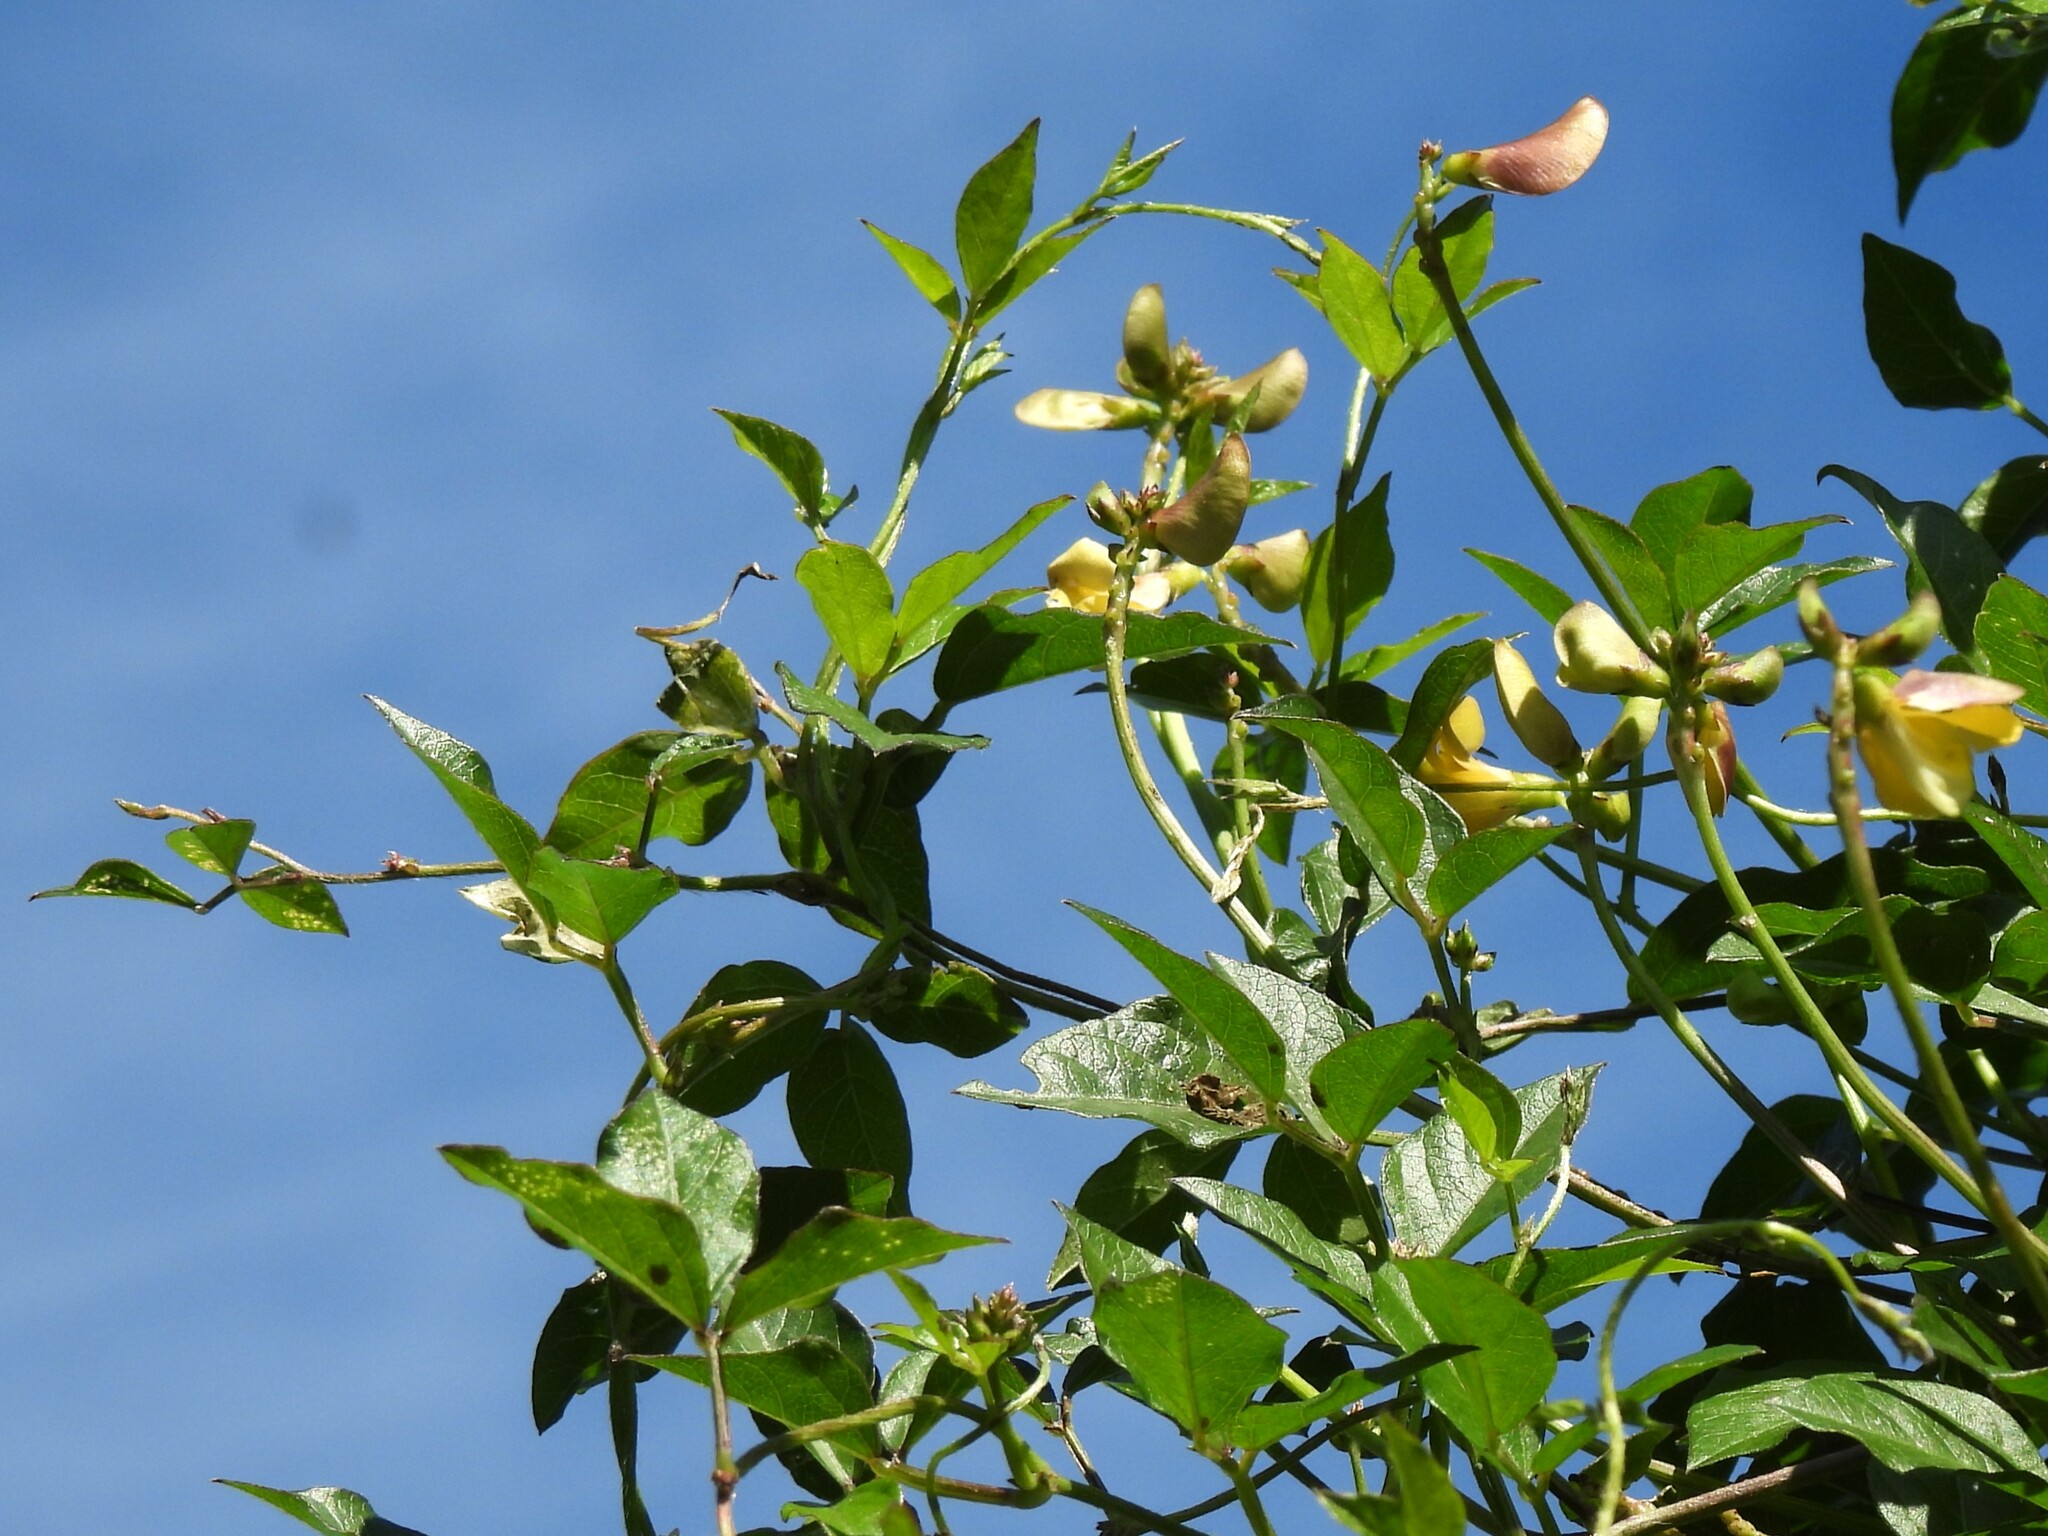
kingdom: Plantae
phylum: Tracheophyta
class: Magnoliopsida
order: Fabales
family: Fabaceae
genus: Vigna
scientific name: Vigna luteola
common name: Hairypod cowpea
